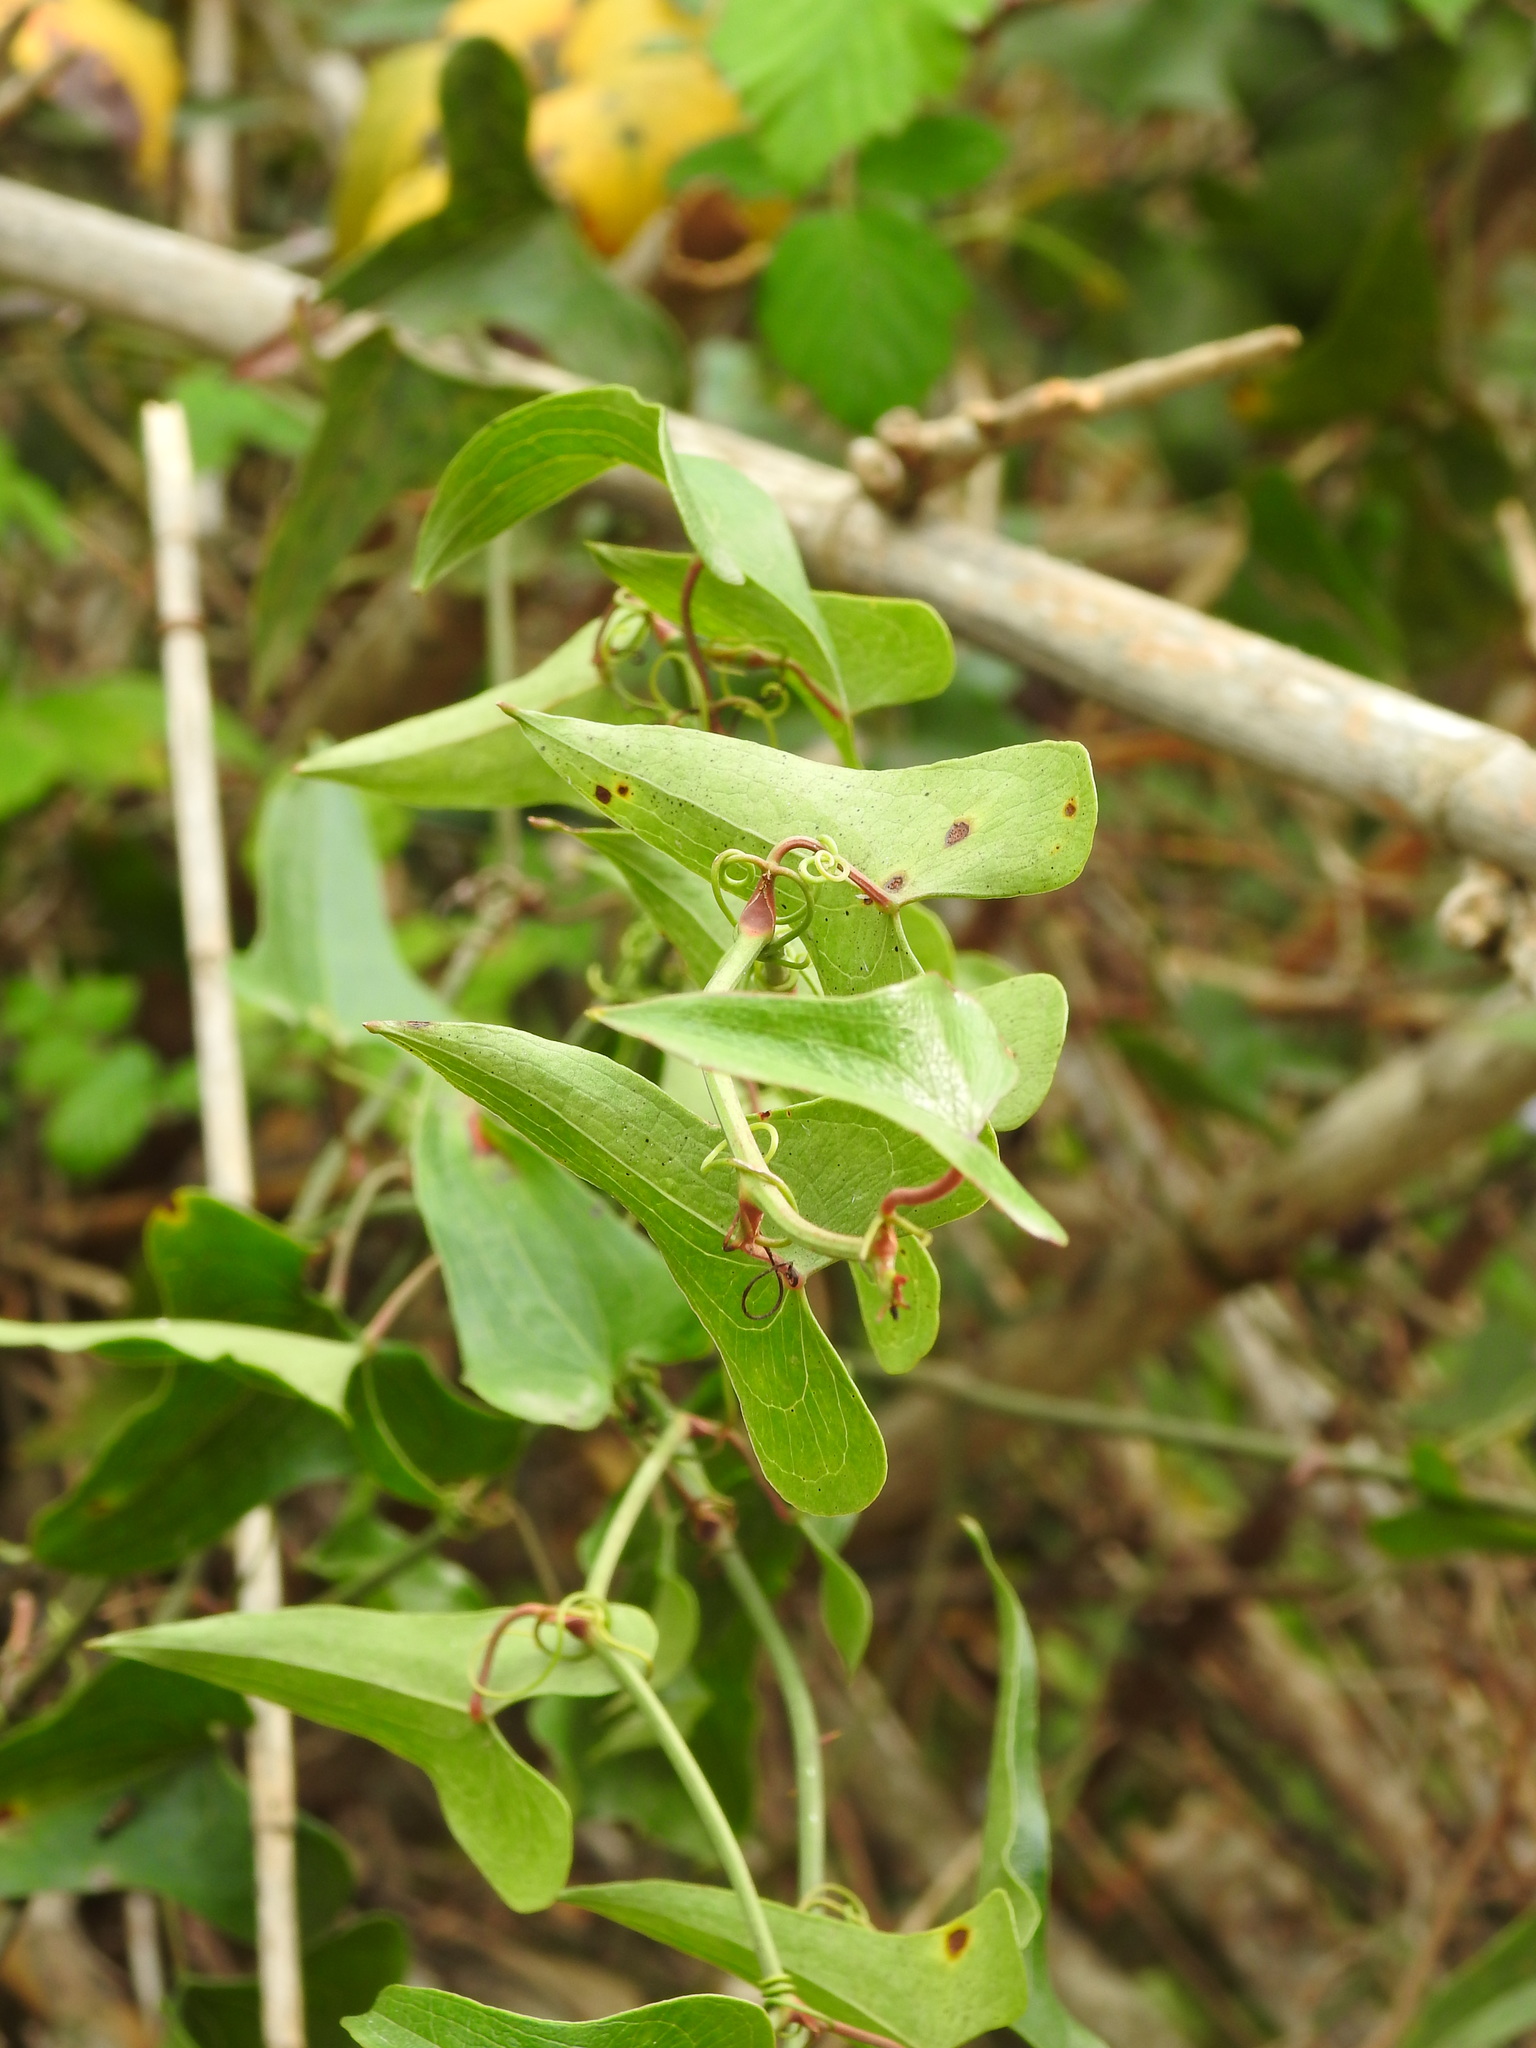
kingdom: Plantae
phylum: Tracheophyta
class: Liliopsida
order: Liliales
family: Smilacaceae
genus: Smilax
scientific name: Smilax aspera
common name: Common smilax
